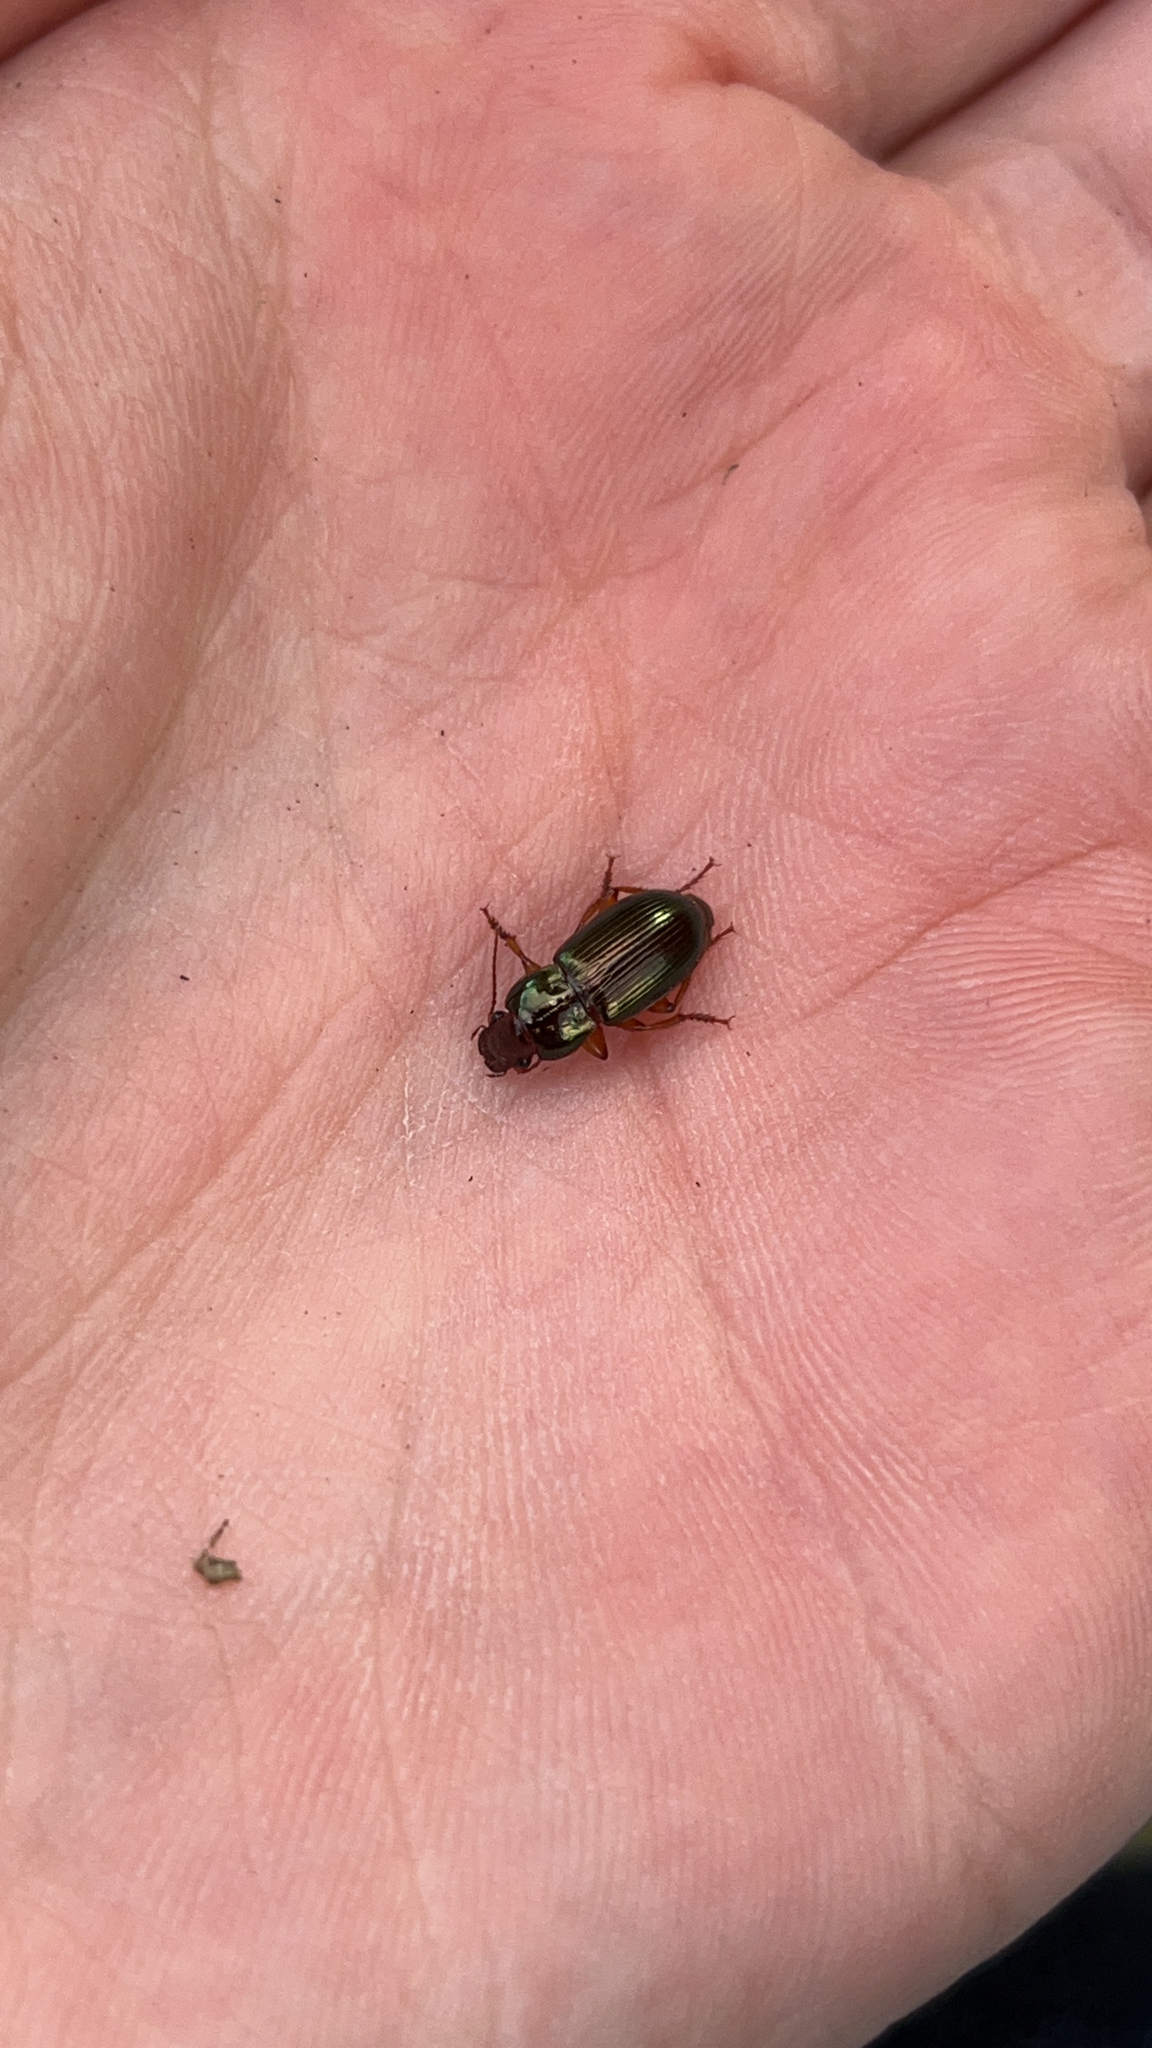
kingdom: Animalia
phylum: Arthropoda
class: Insecta
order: Coleoptera
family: Carabidae
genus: Harpalus
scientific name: Harpalus affinis
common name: Polychrome harp ground beetle
